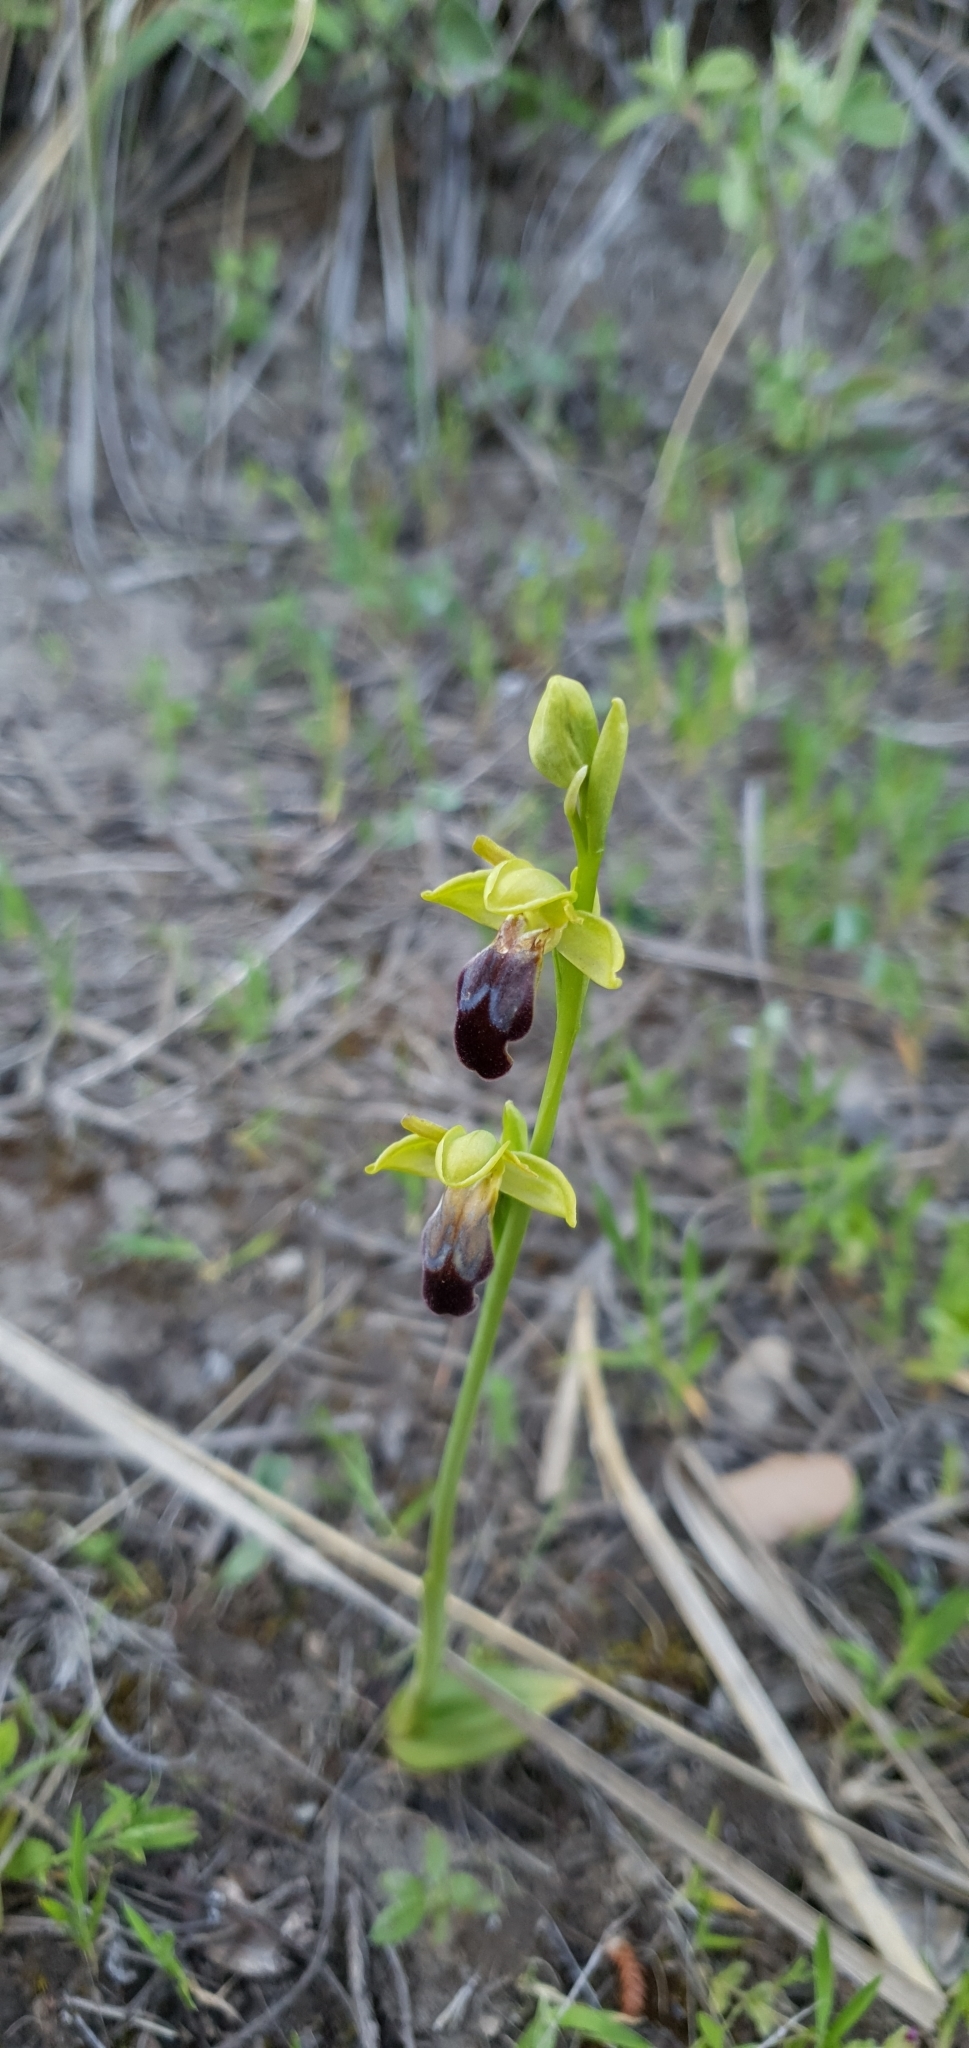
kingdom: Plantae
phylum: Tracheophyta
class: Liliopsida
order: Asparagales
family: Orchidaceae
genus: Ophrys
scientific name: Ophrys fusca
